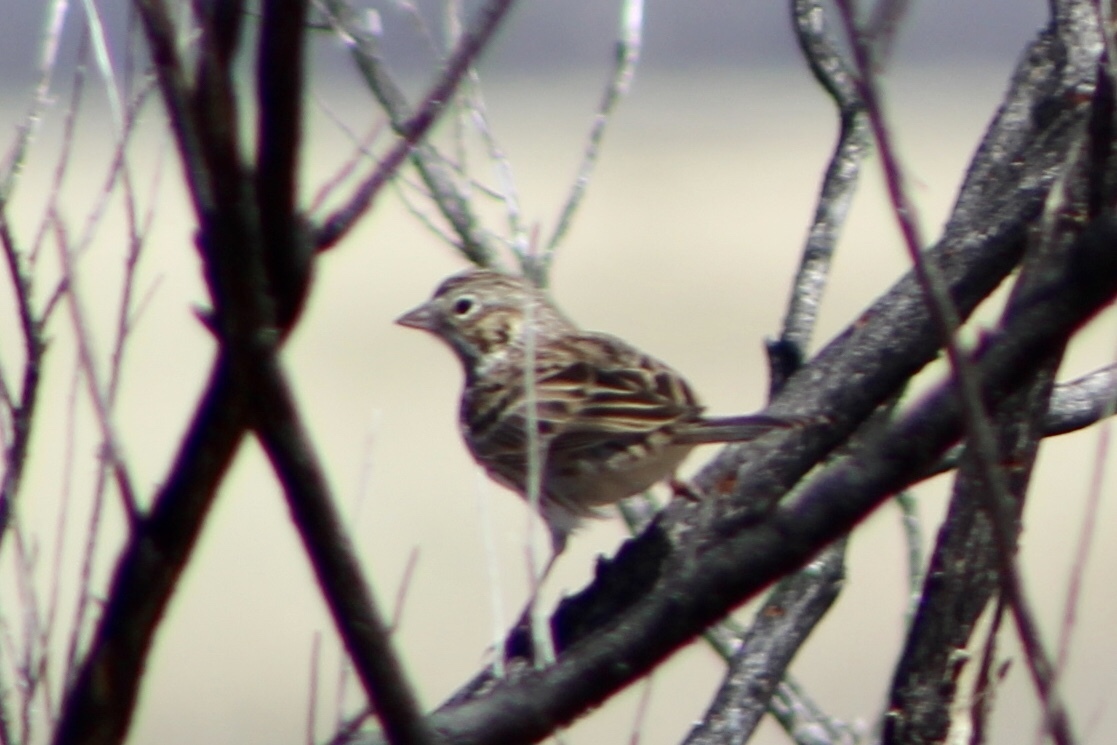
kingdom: Animalia
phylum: Chordata
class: Aves
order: Passeriformes
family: Passerellidae
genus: Pooecetes
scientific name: Pooecetes gramineus
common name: Vesper sparrow
